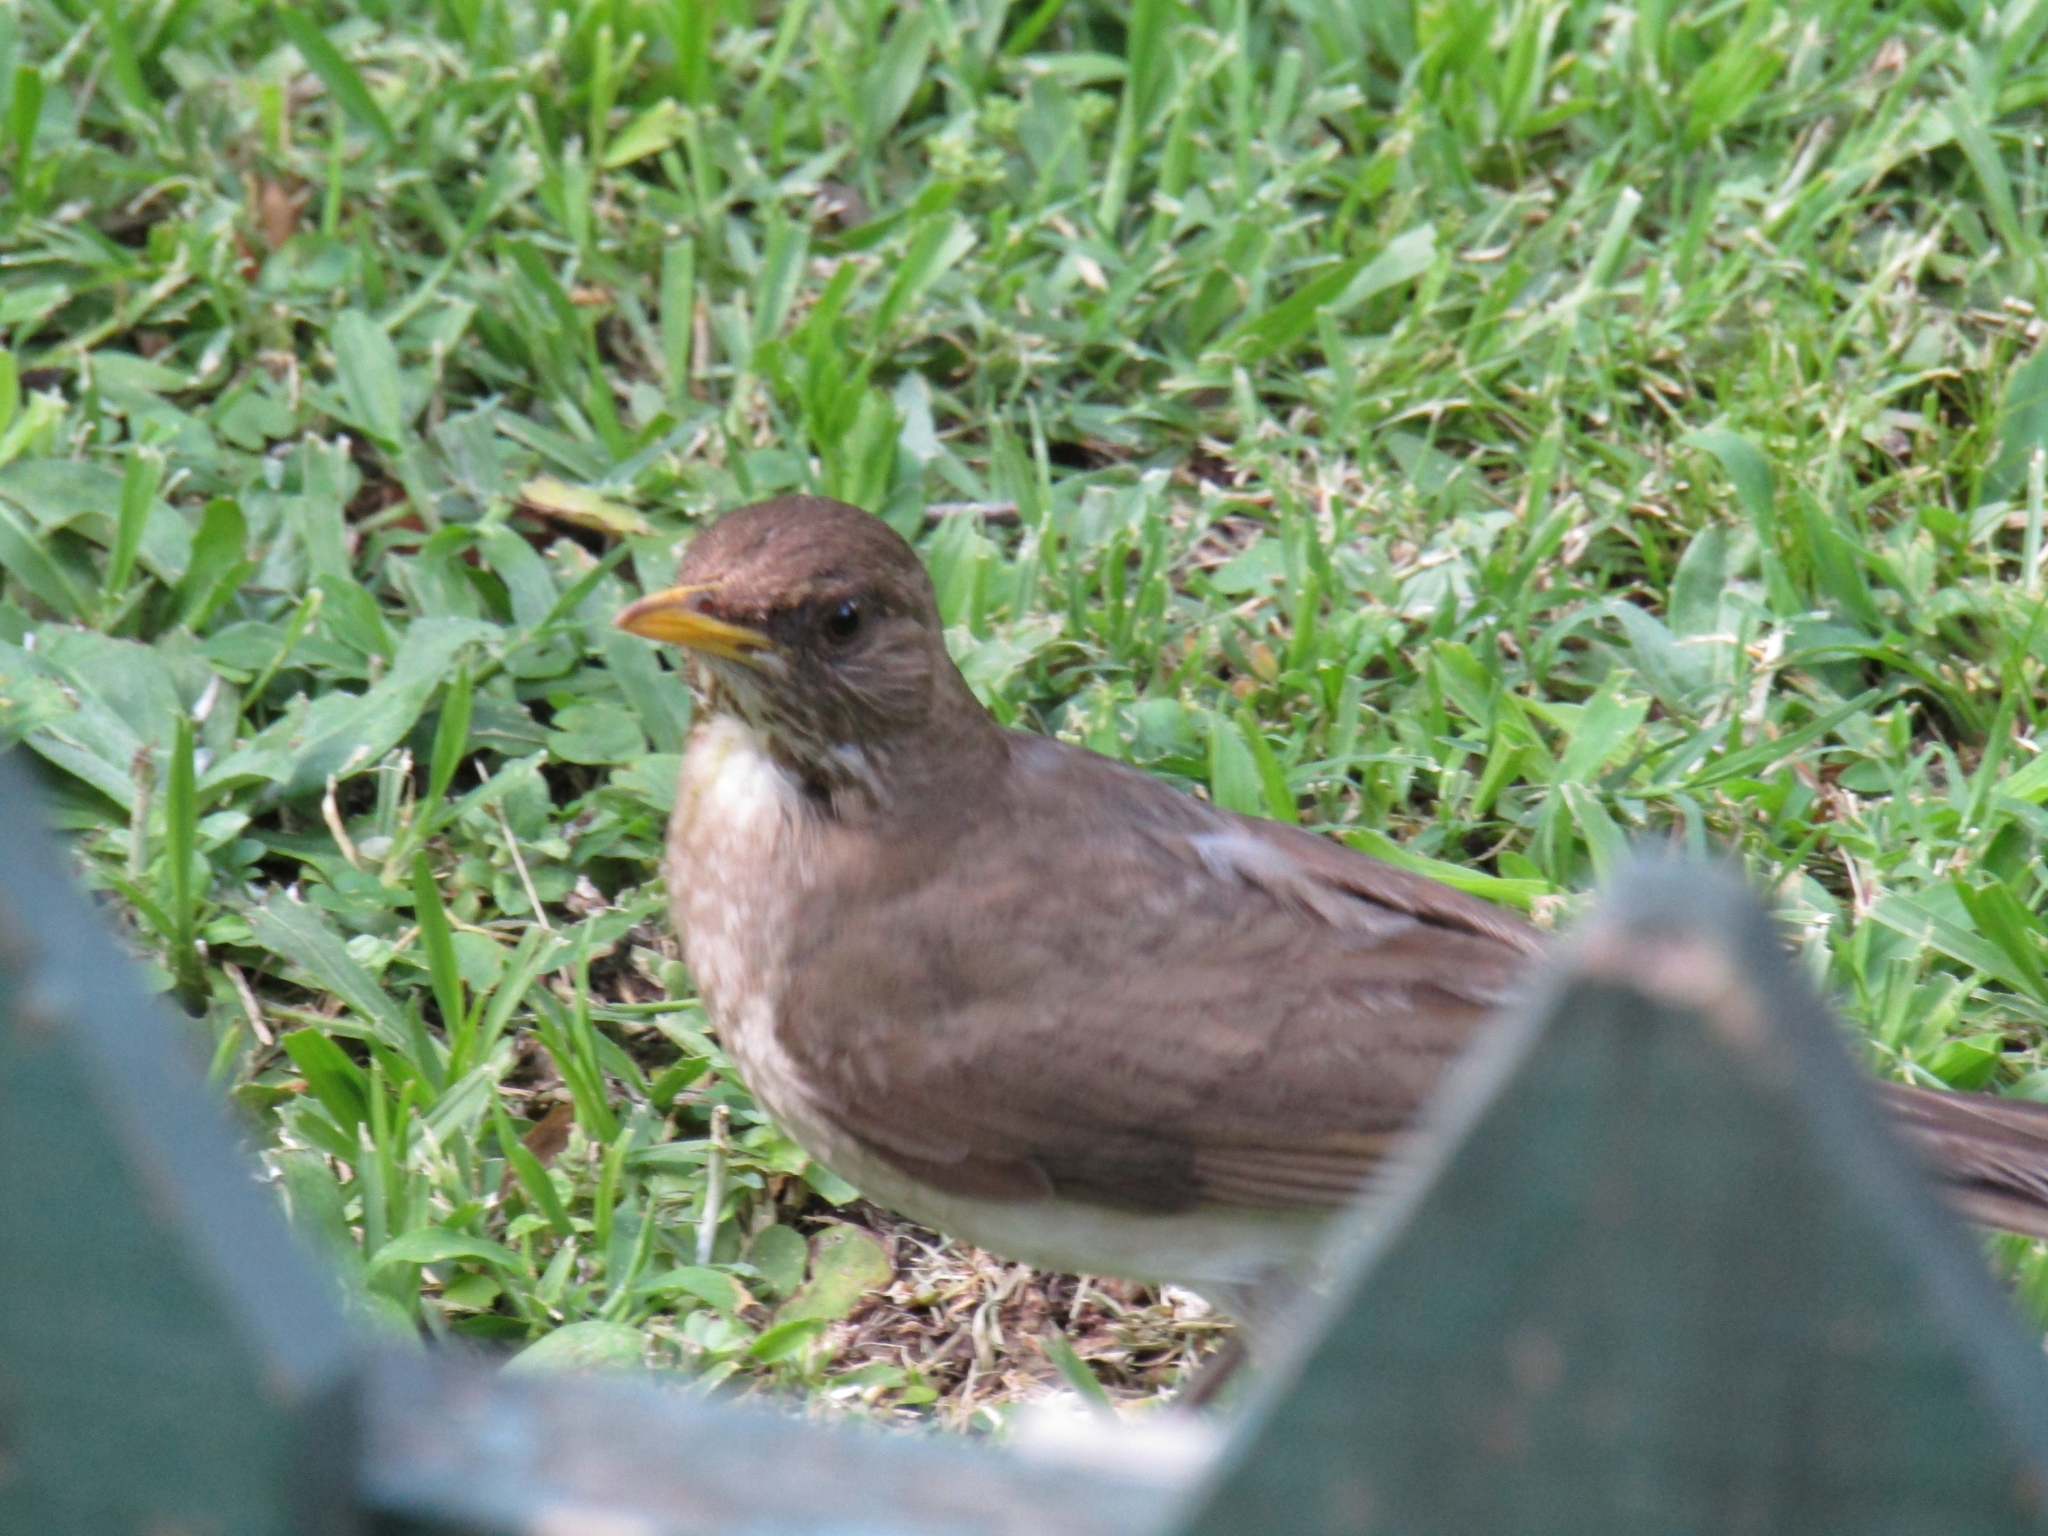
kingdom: Animalia
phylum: Chordata
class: Aves
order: Passeriformes
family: Turdidae
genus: Turdus
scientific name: Turdus amaurochalinus
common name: Creamy-bellied thrush
